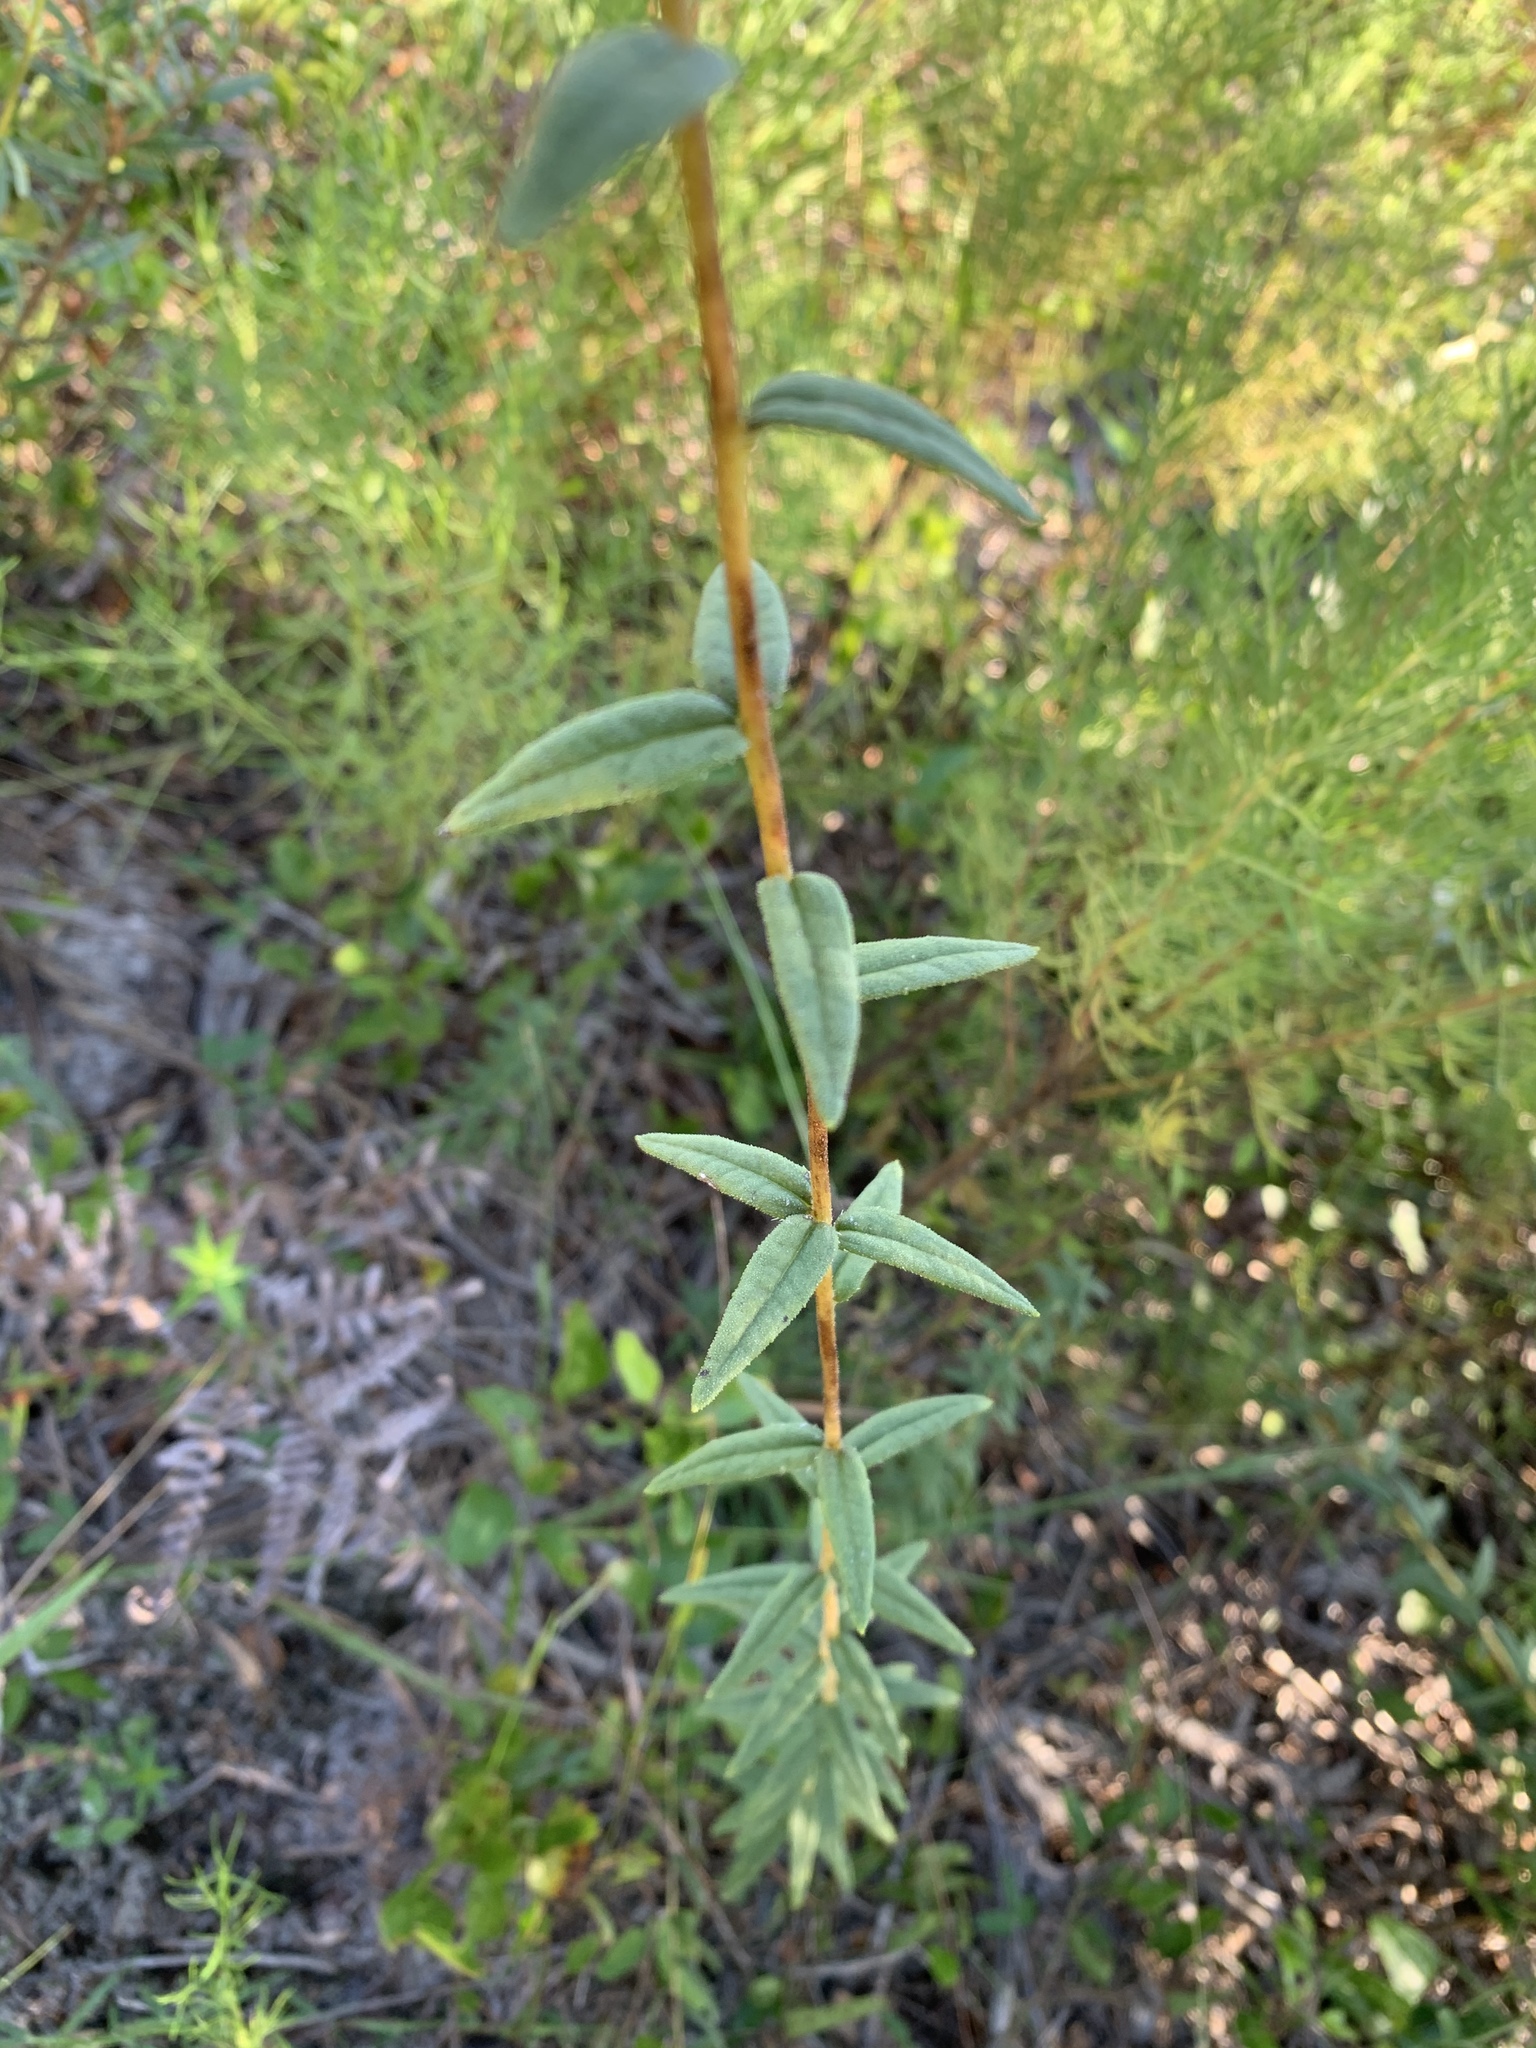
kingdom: Plantae
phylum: Tracheophyta
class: Magnoliopsida
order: Asterales
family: Asteraceae
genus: Phoebanthus
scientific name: Phoebanthus grandiflora
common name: Florida false sunflower
